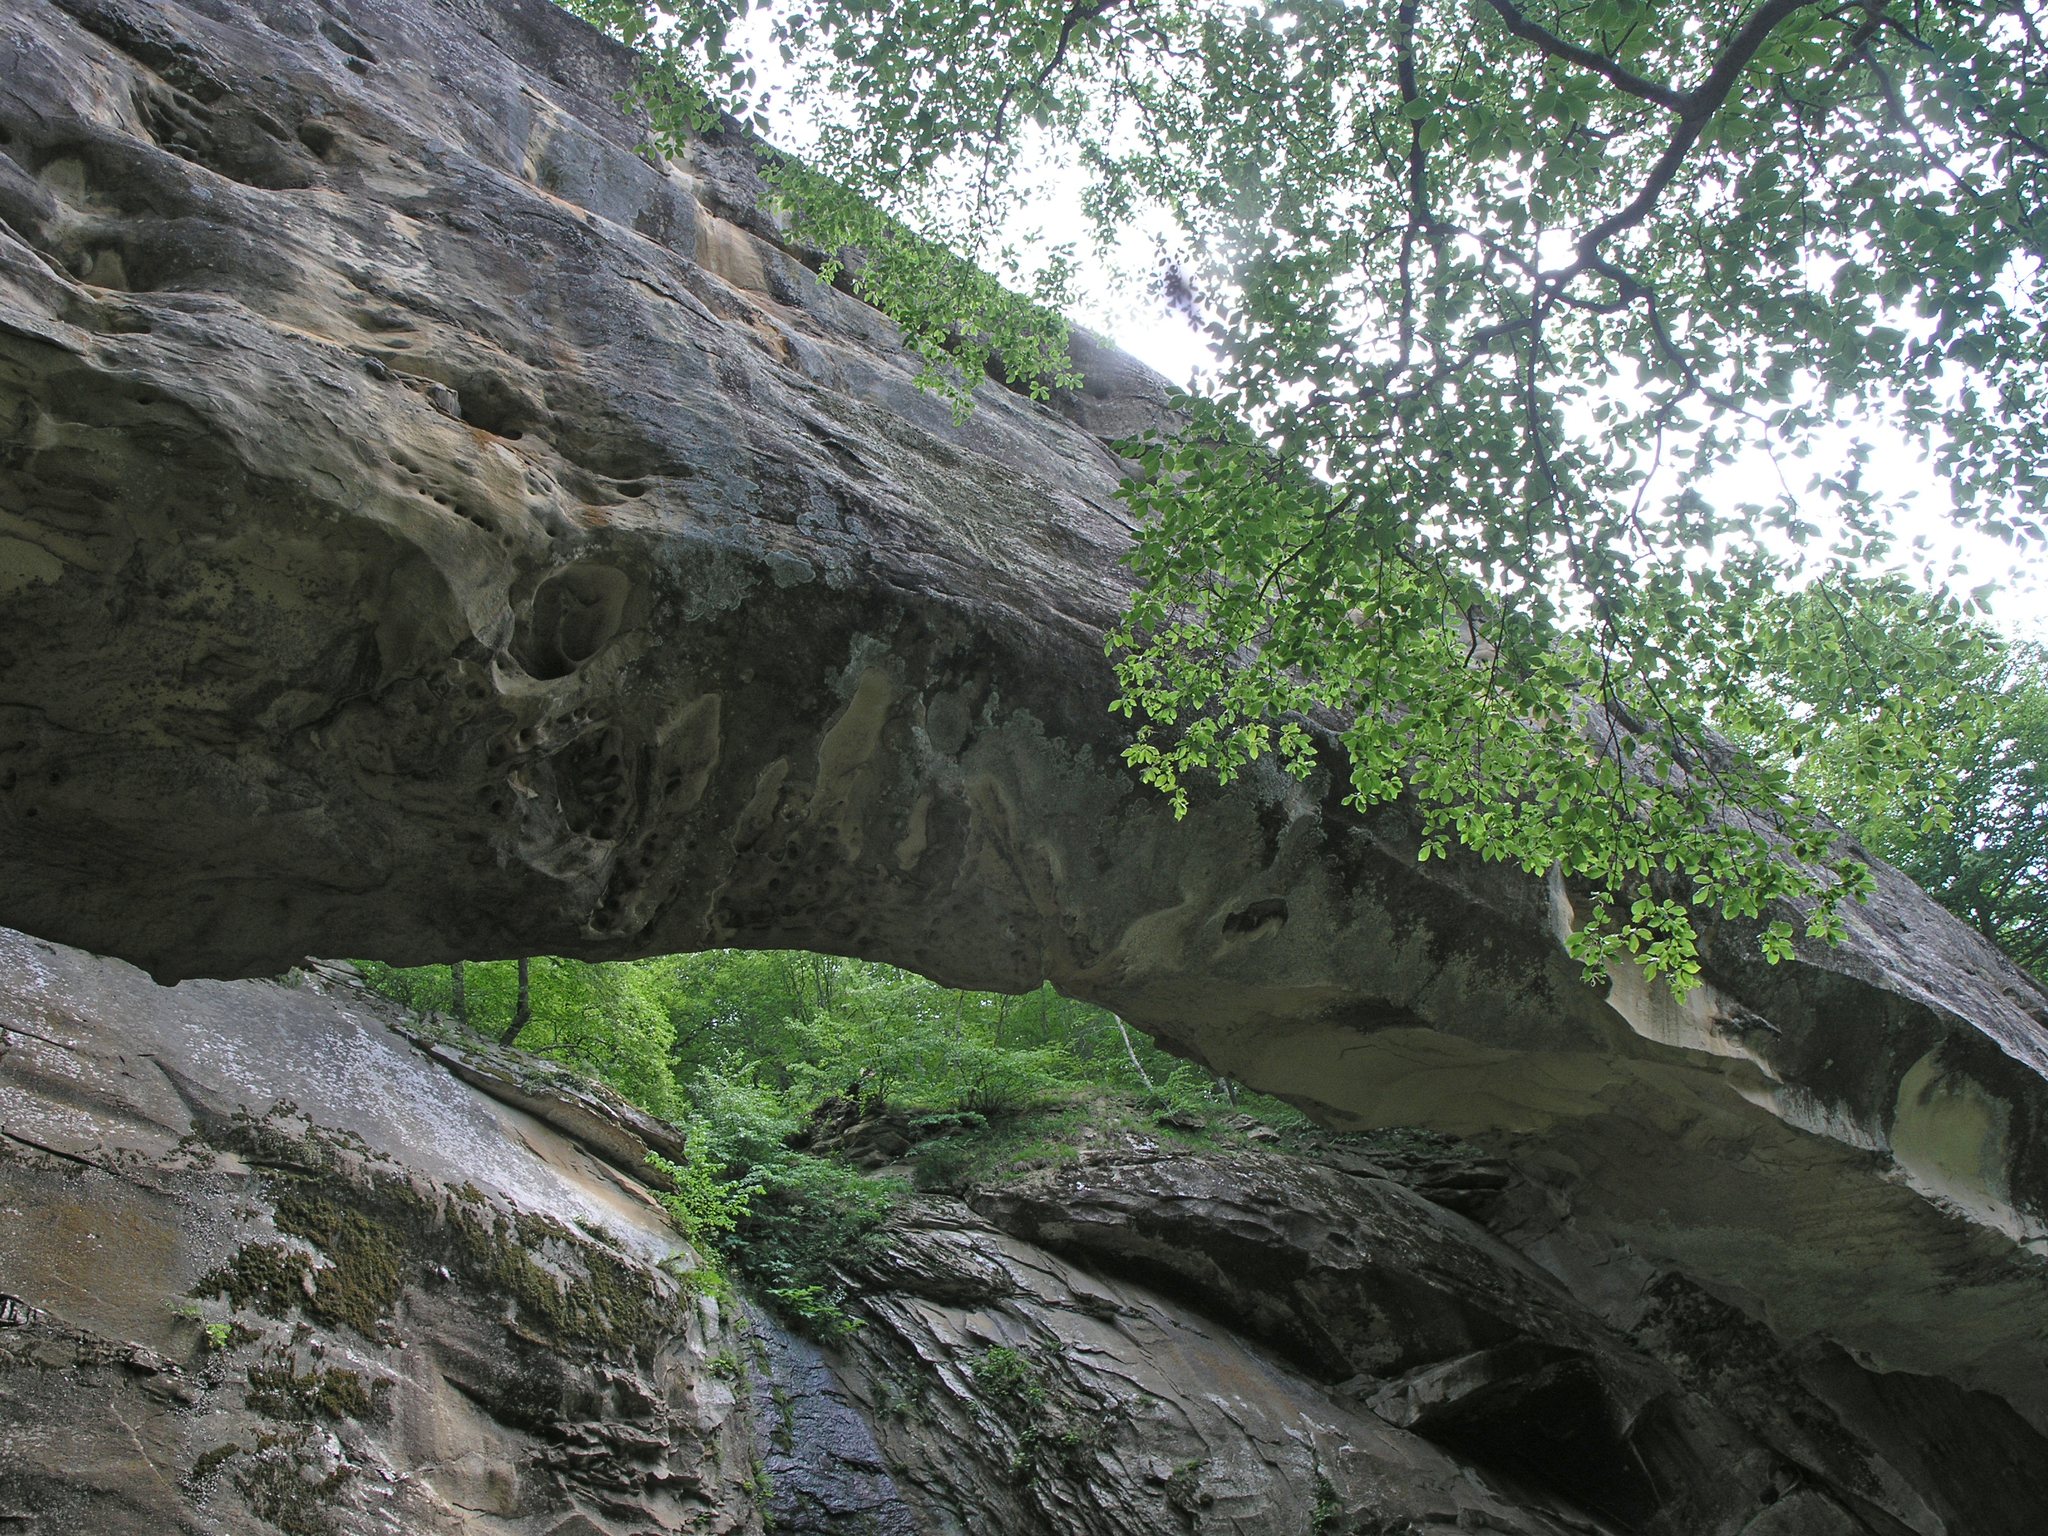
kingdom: Plantae
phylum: Tracheophyta
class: Magnoliopsida
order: Fagales
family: Fagaceae
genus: Fagus
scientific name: Fagus orientalis
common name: Oriental beech
